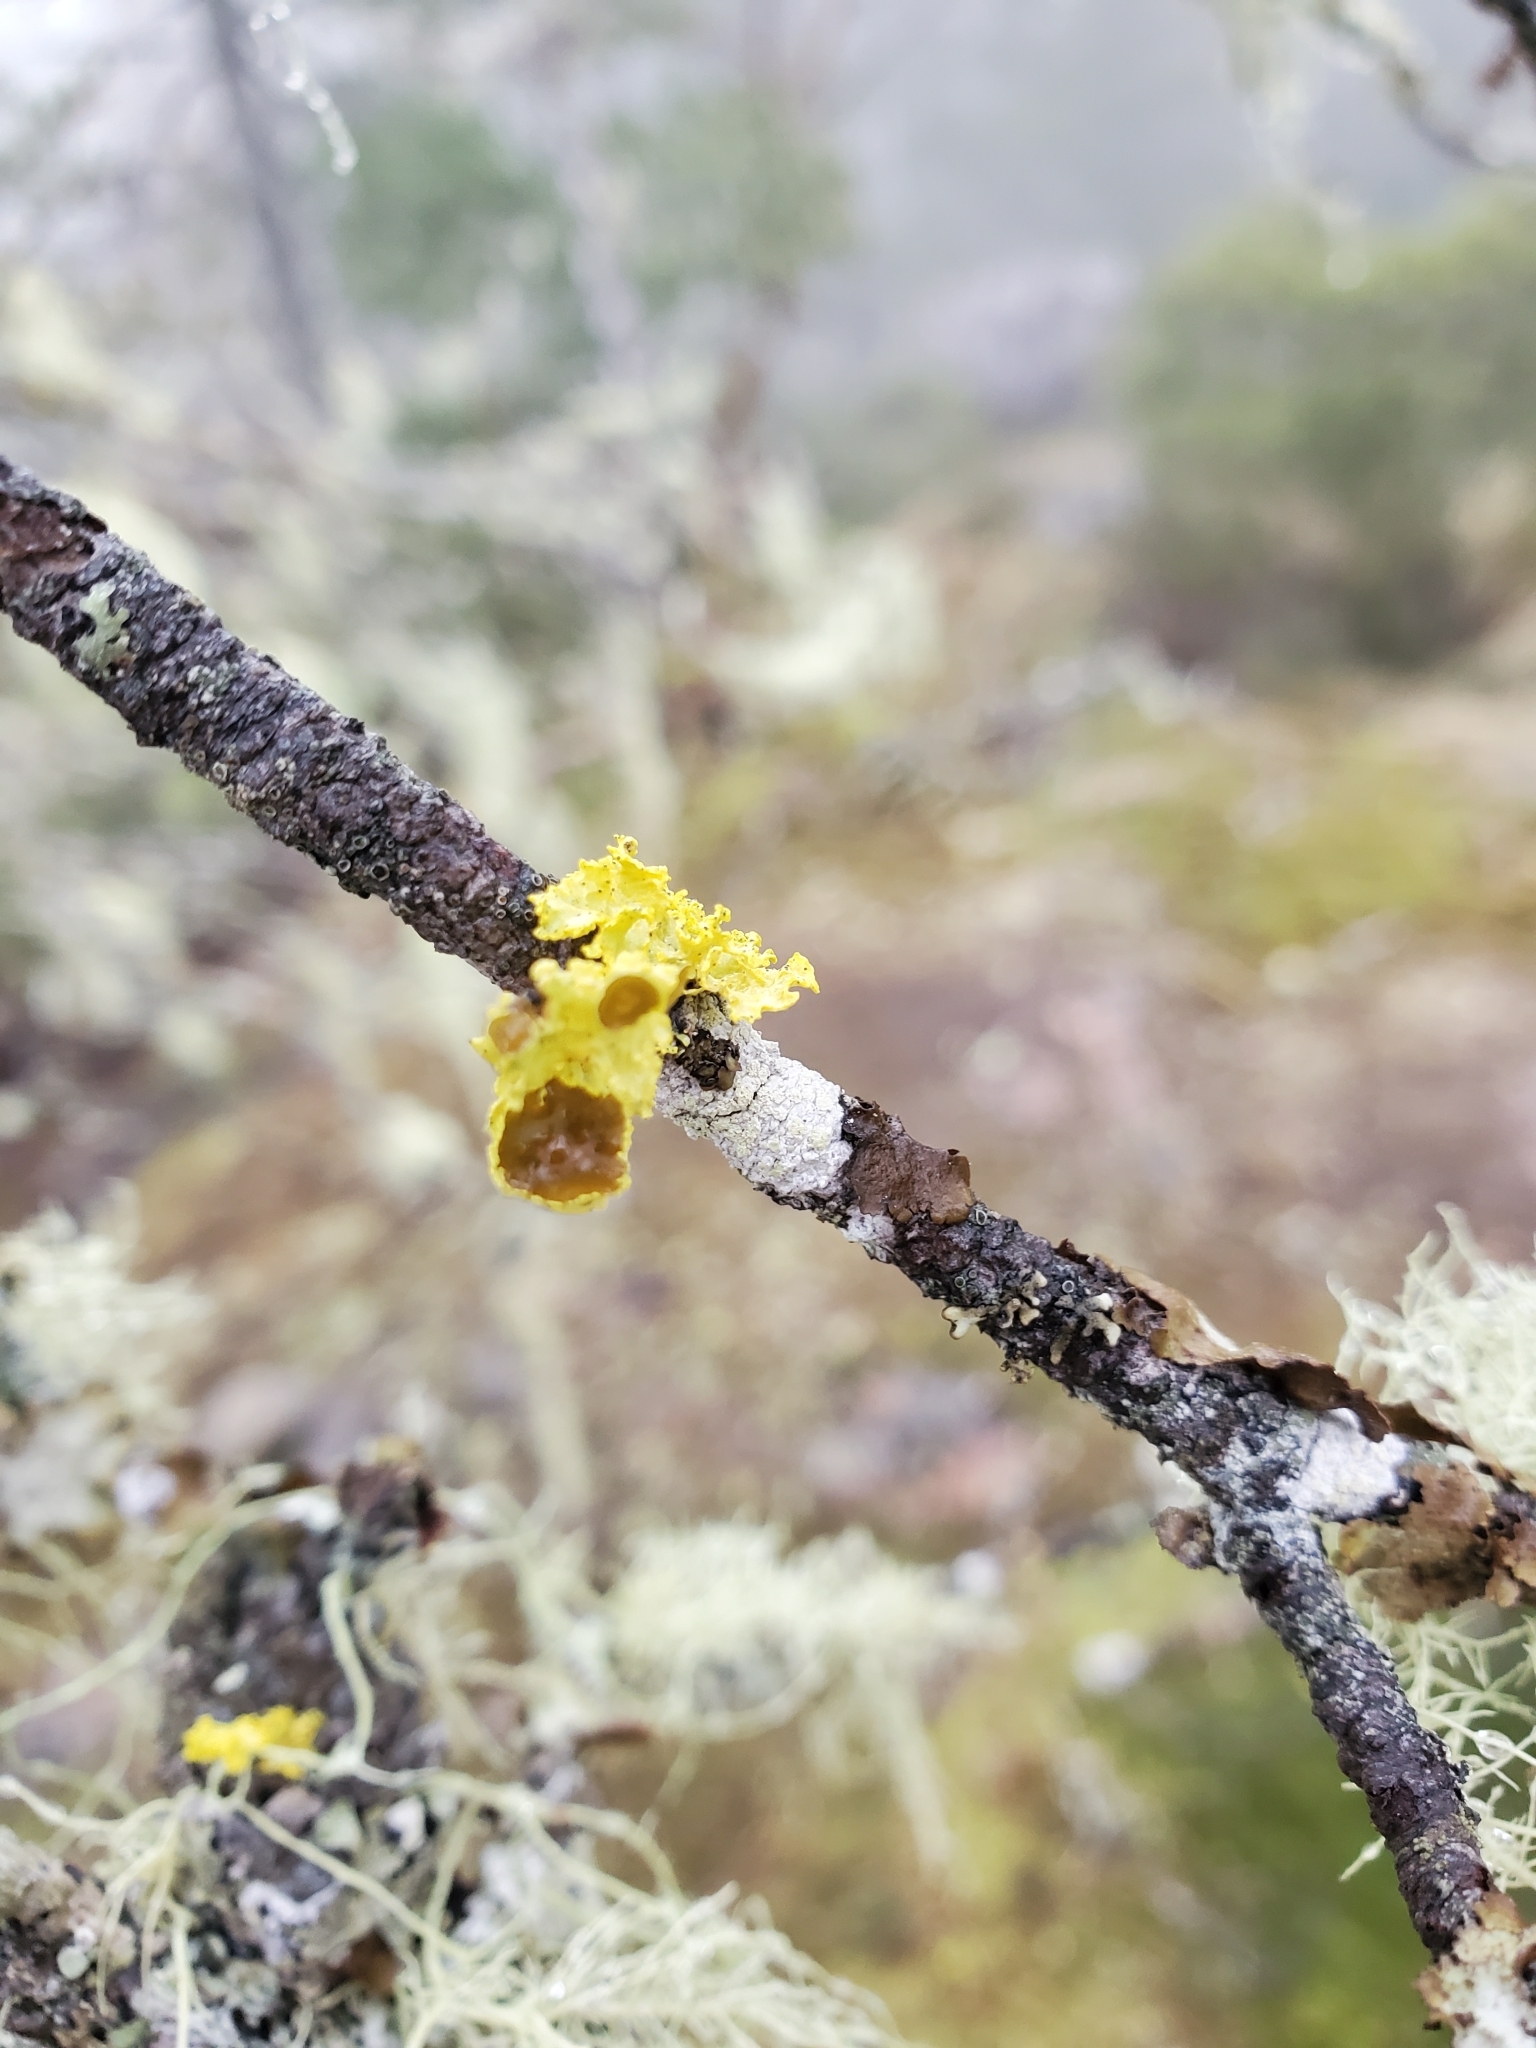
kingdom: Fungi
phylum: Ascomycota
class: Lecanoromycetes
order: Lecanorales
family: Parmeliaceae
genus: Vulpicida
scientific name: Vulpicida canadensis
